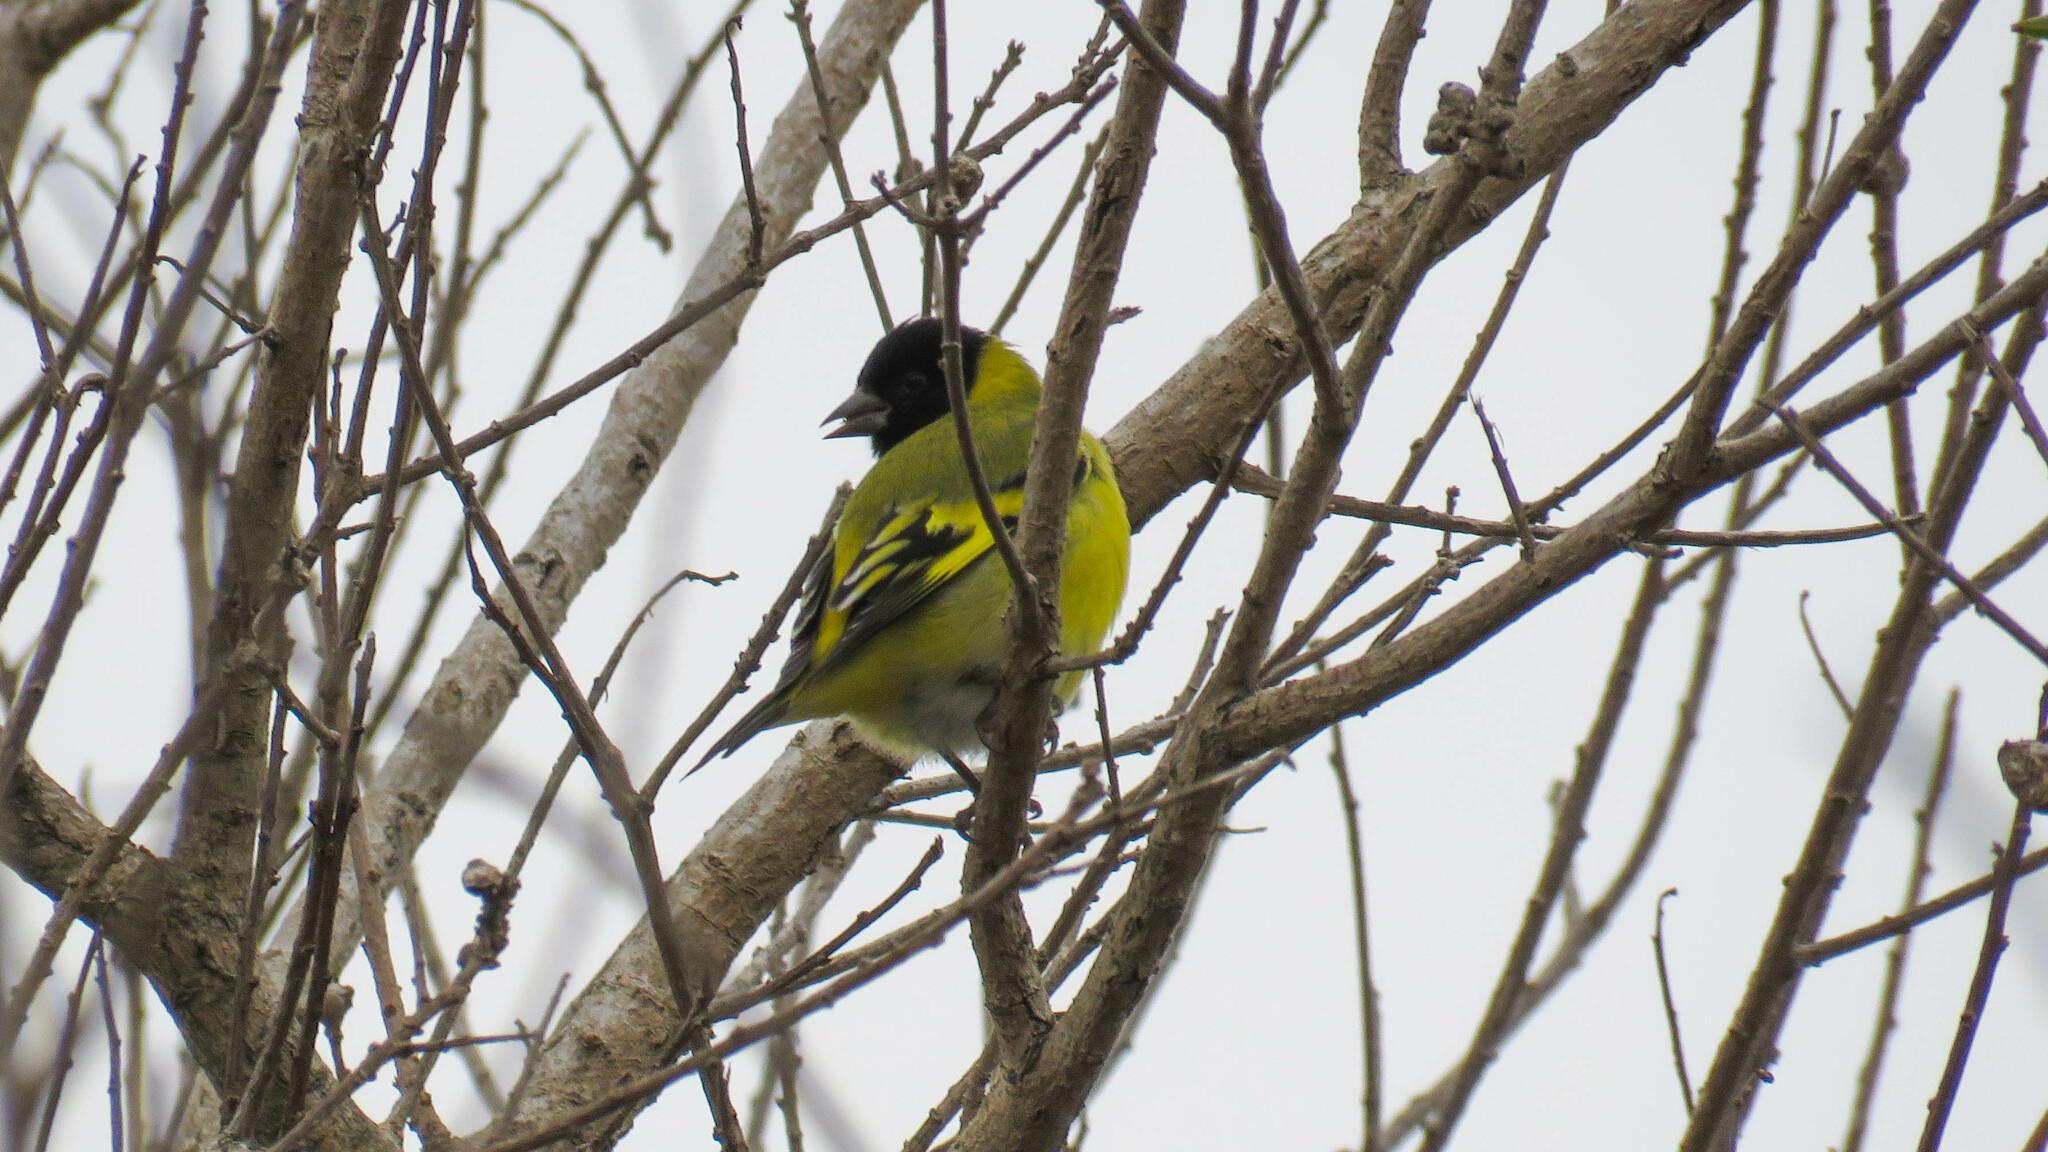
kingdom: Animalia
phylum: Chordata
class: Aves
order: Passeriformes
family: Fringillidae
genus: Spinus
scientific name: Spinus magellanicus
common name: Hooded siskin
